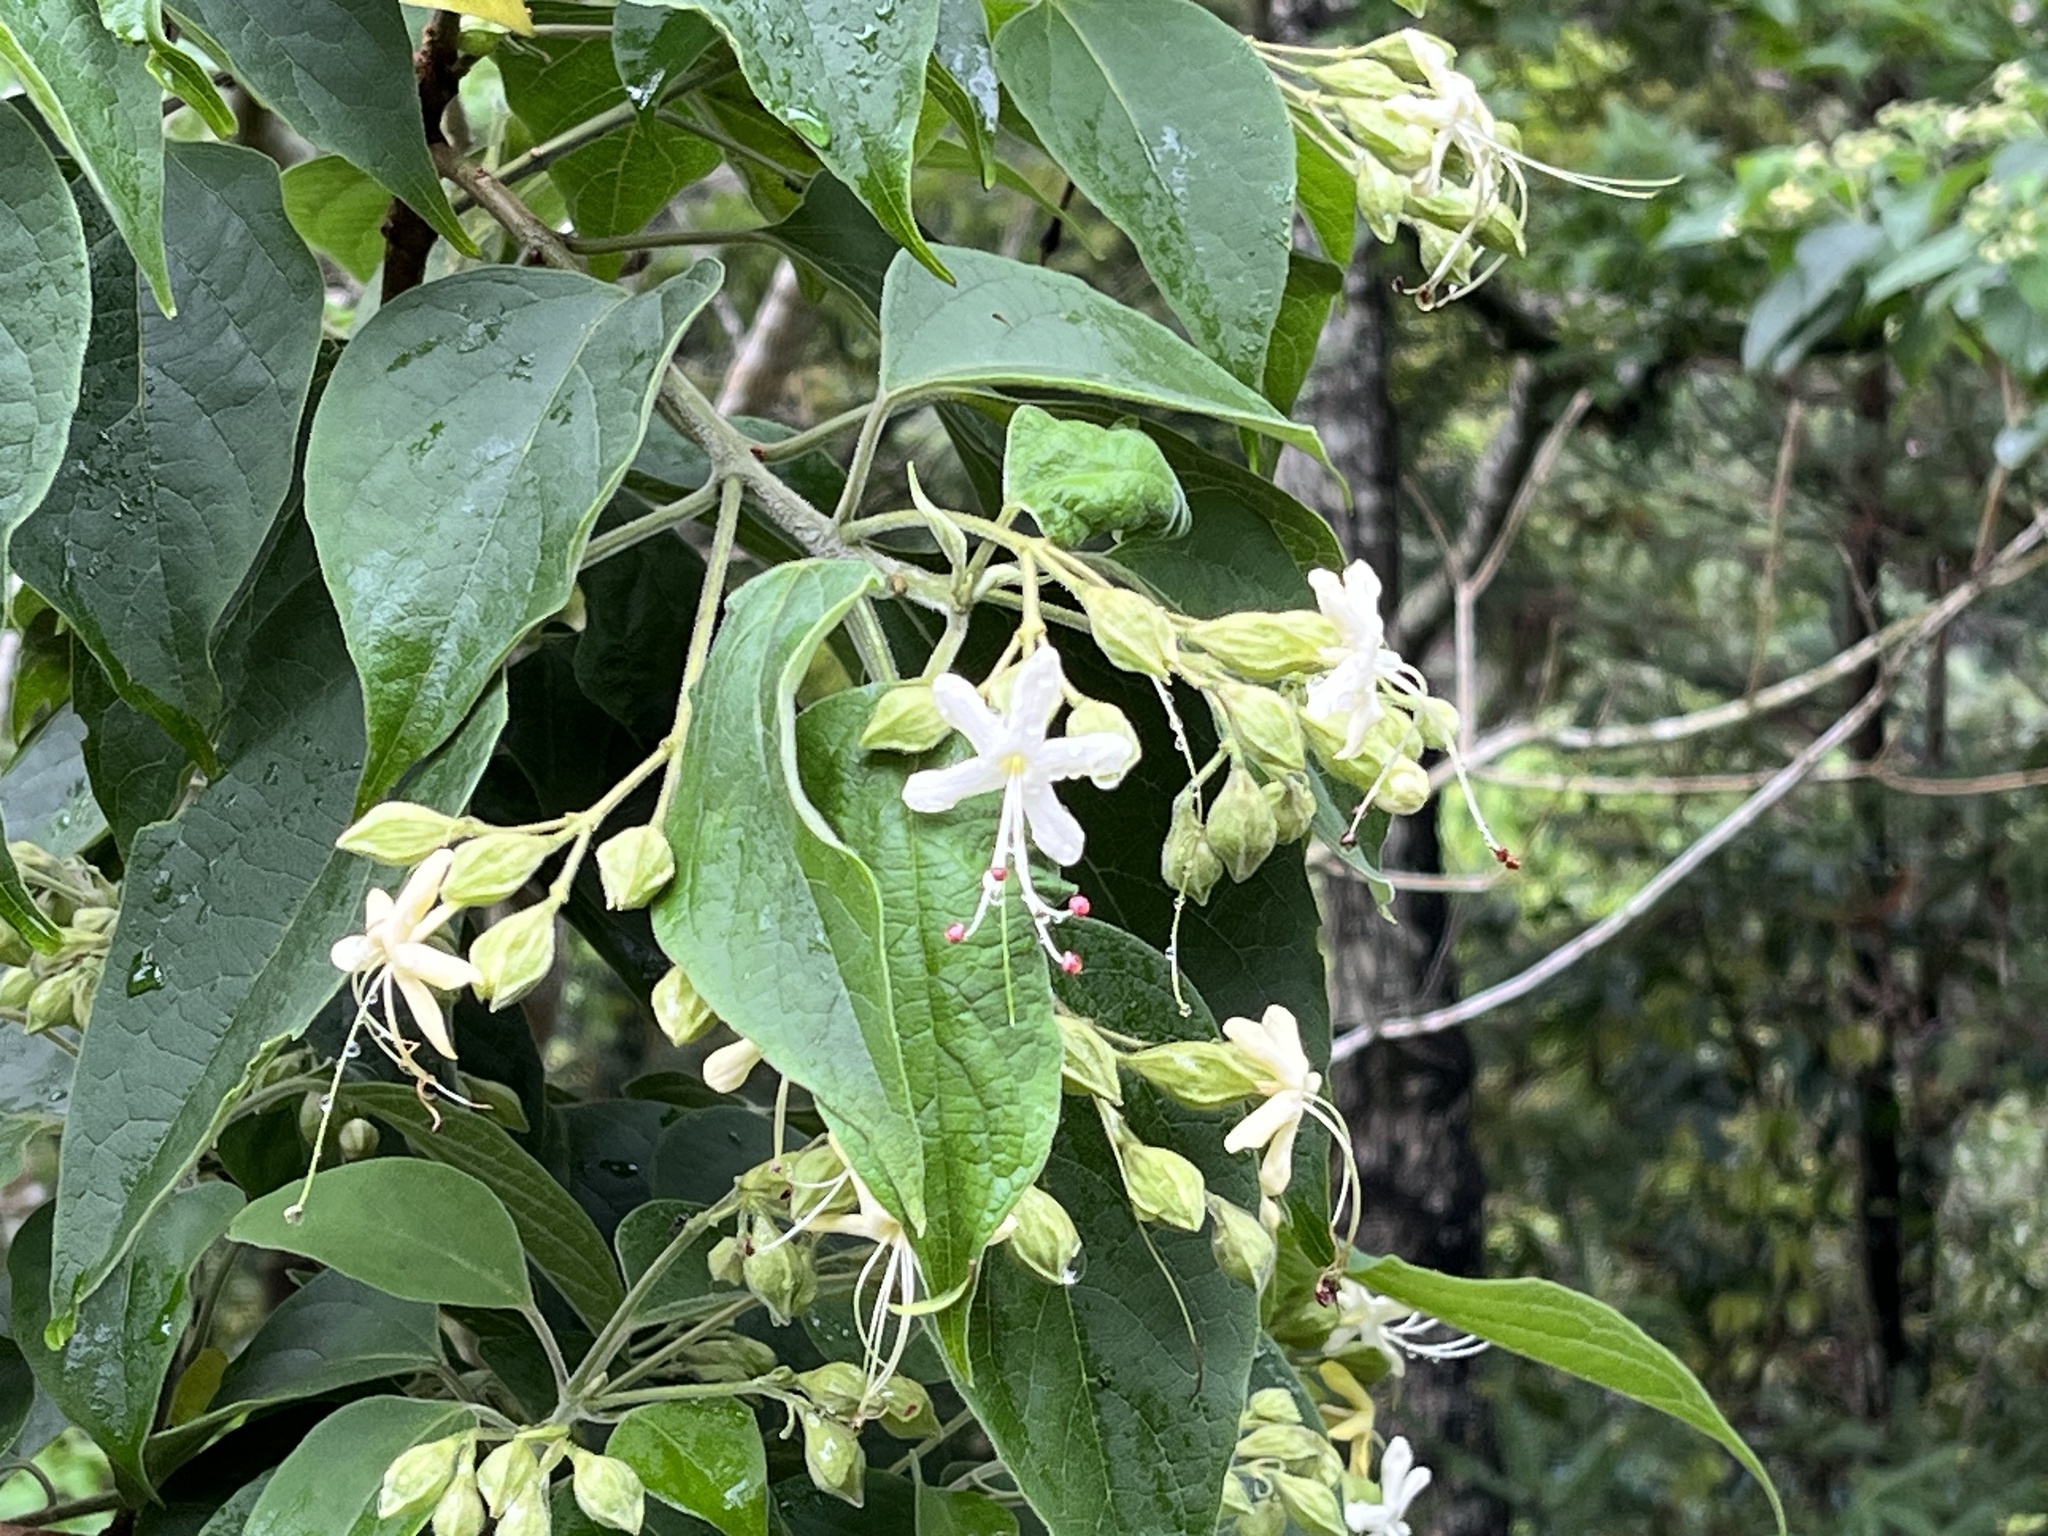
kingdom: Plantae
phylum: Tracheophyta
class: Magnoliopsida
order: Lamiales
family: Lamiaceae
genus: Clerodendrum
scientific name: Clerodendrum trichotomum
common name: Harlequin glorybower
